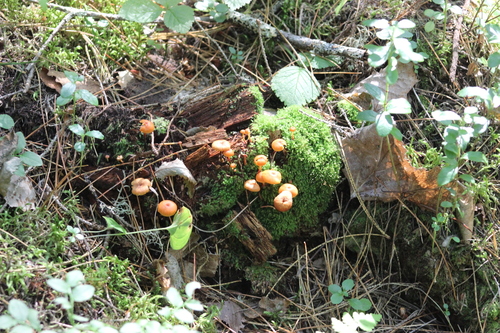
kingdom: Fungi
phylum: Basidiomycota
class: Agaricomycetes
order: Agaricales
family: Mycenaceae
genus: Xeromphalina
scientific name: Xeromphalina campanella
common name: Pinewood gingertail
